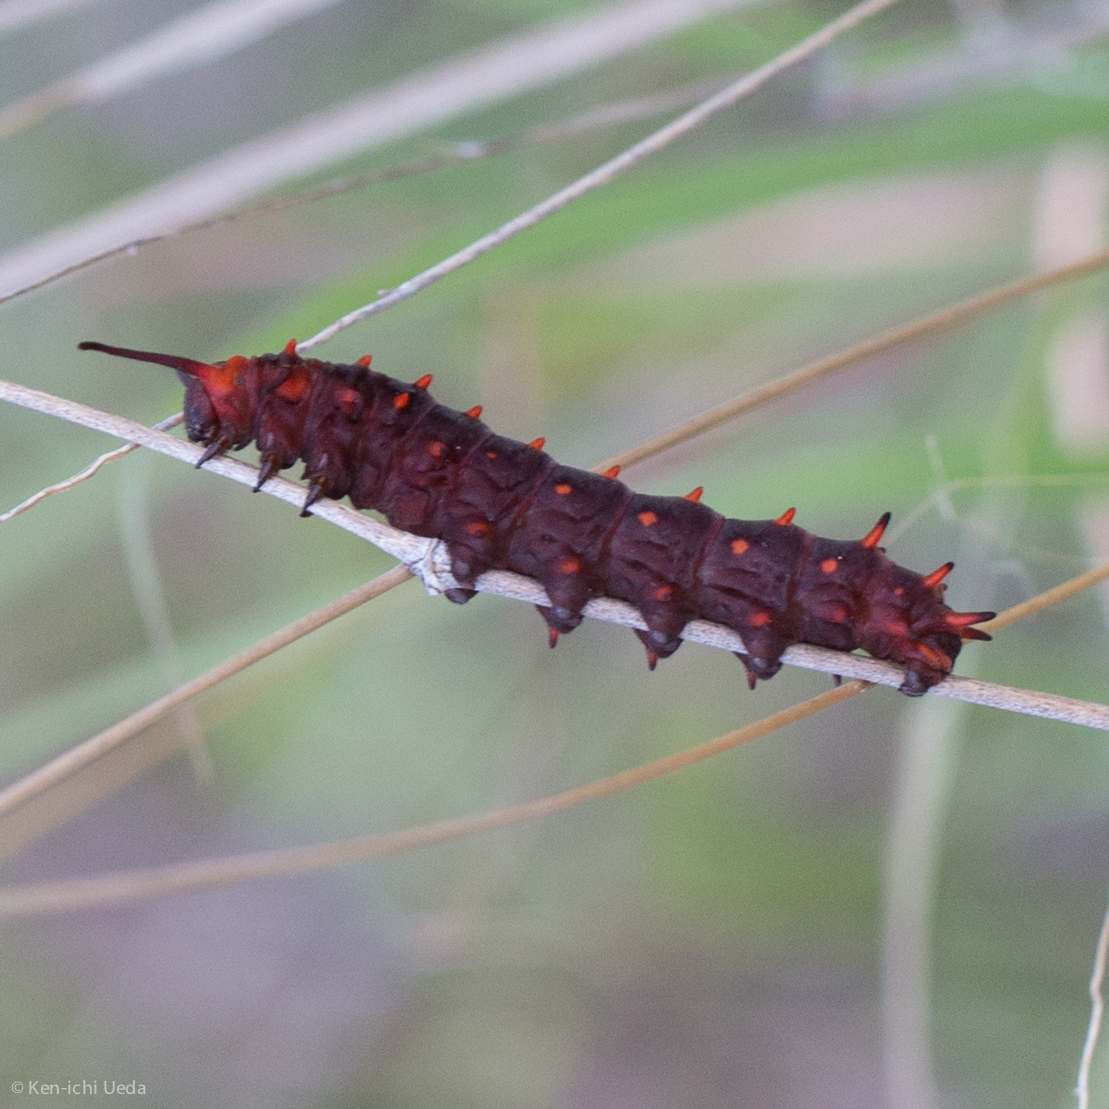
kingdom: Animalia
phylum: Arthropoda
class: Insecta
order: Lepidoptera
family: Papilionidae
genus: Battus
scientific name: Battus philenor
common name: Pipevine swallowtail
